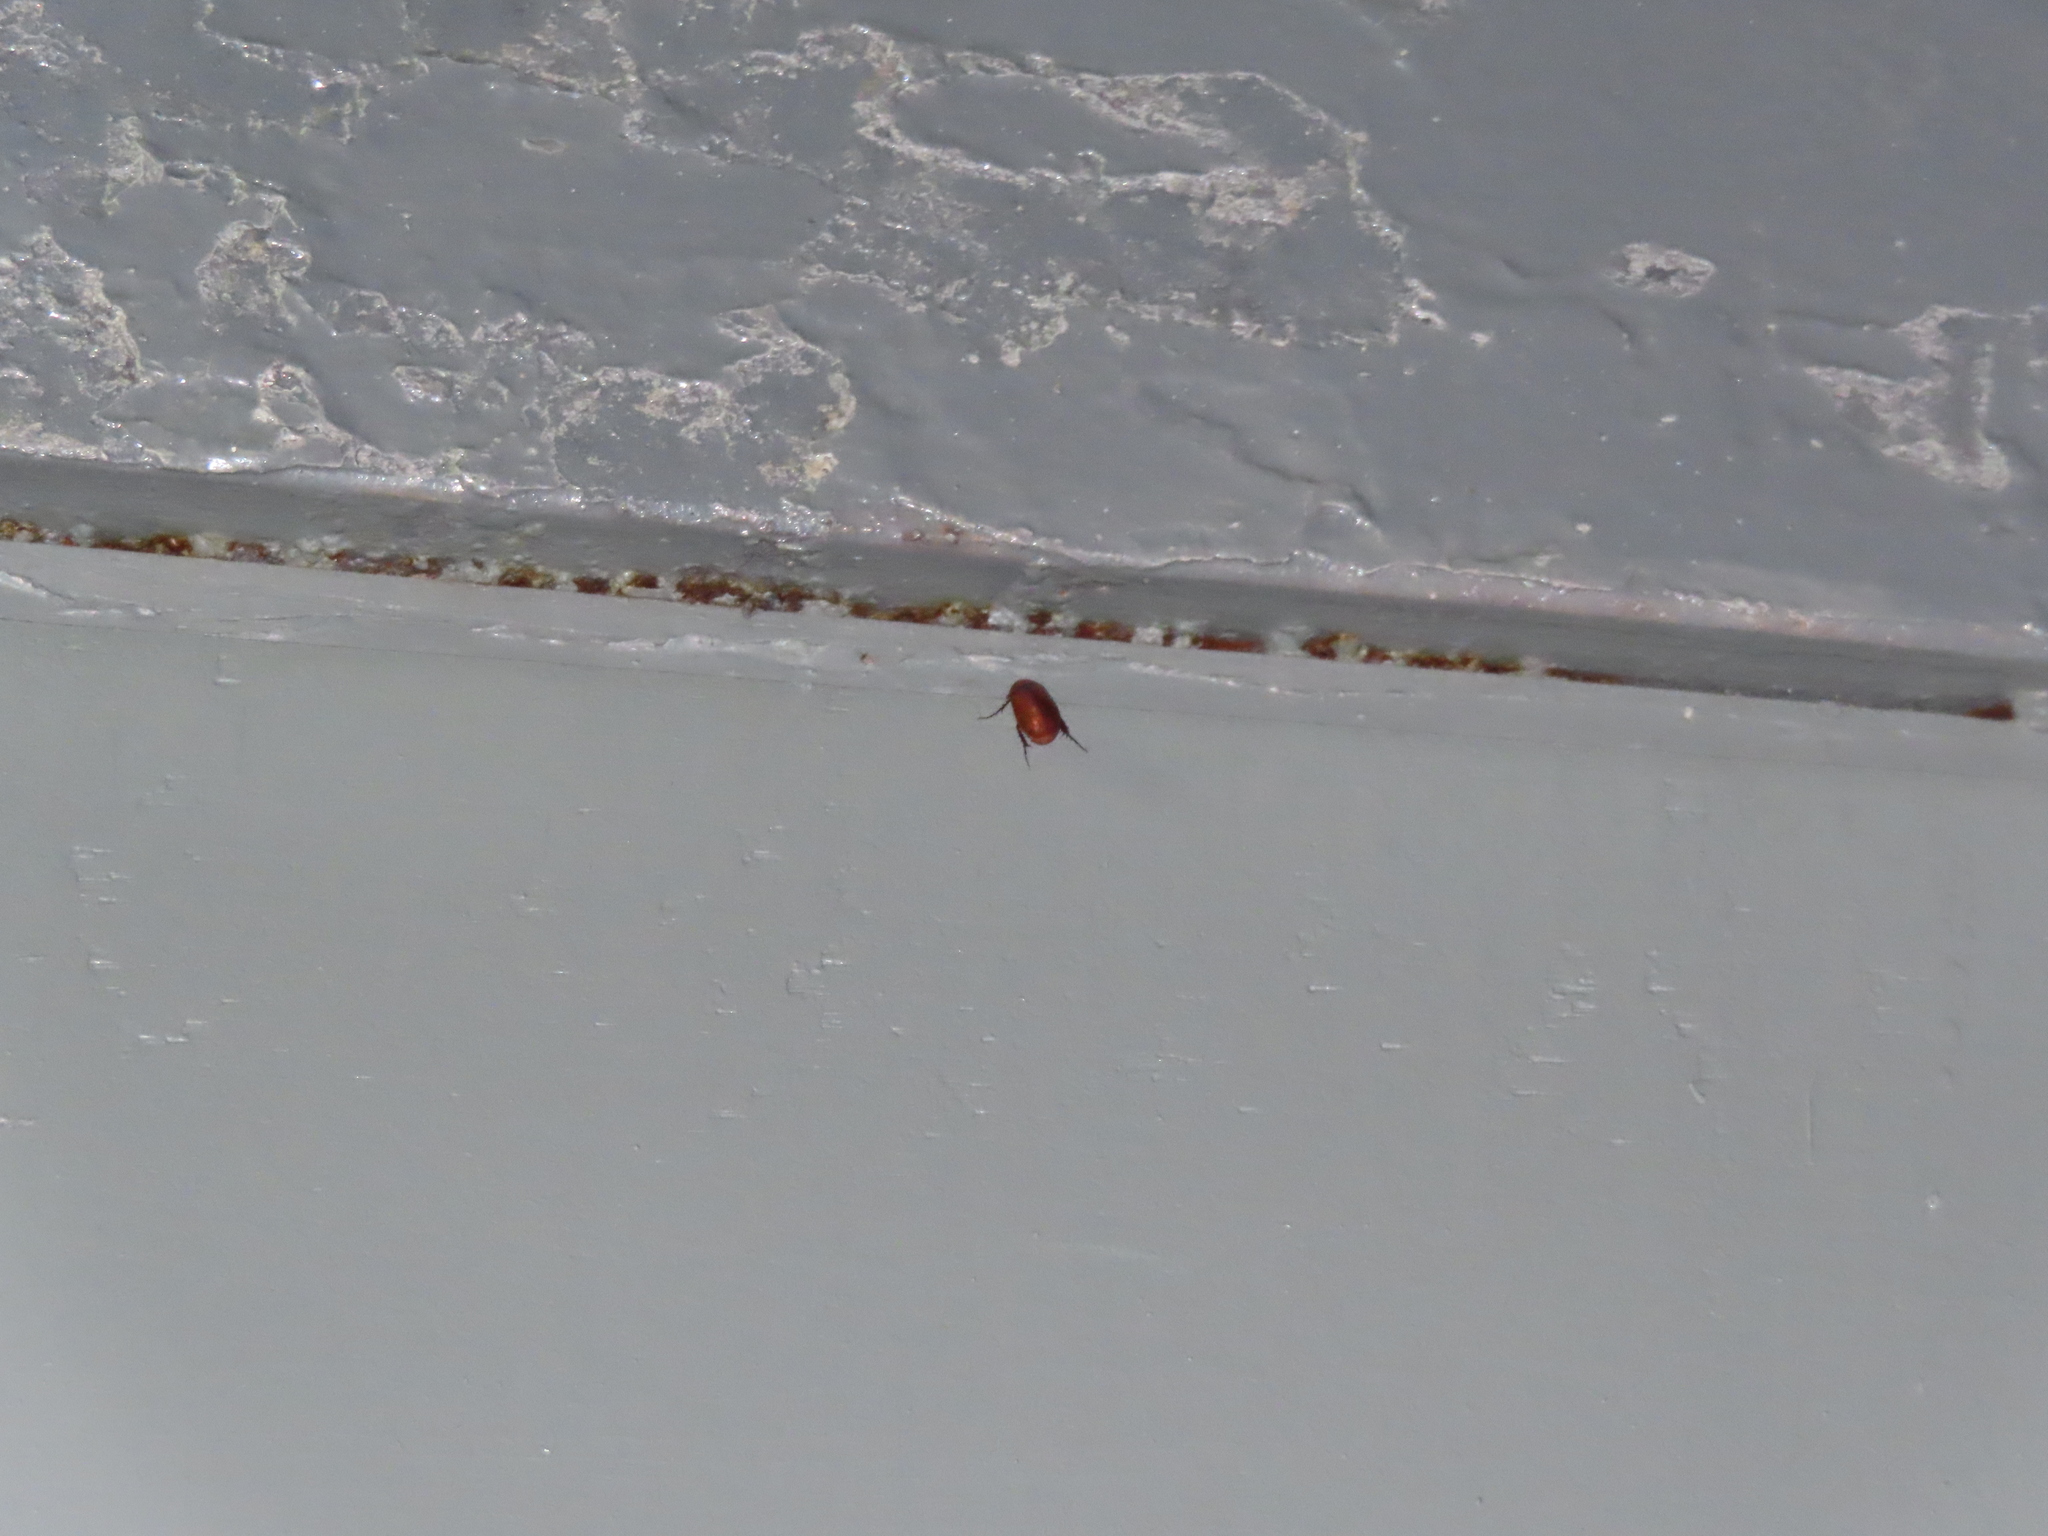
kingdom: Animalia
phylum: Arthropoda
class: Insecta
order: Coleoptera
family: Scarabaeidae
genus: Maladera
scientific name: Maladera formosae
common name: Asiatic garden beetle
